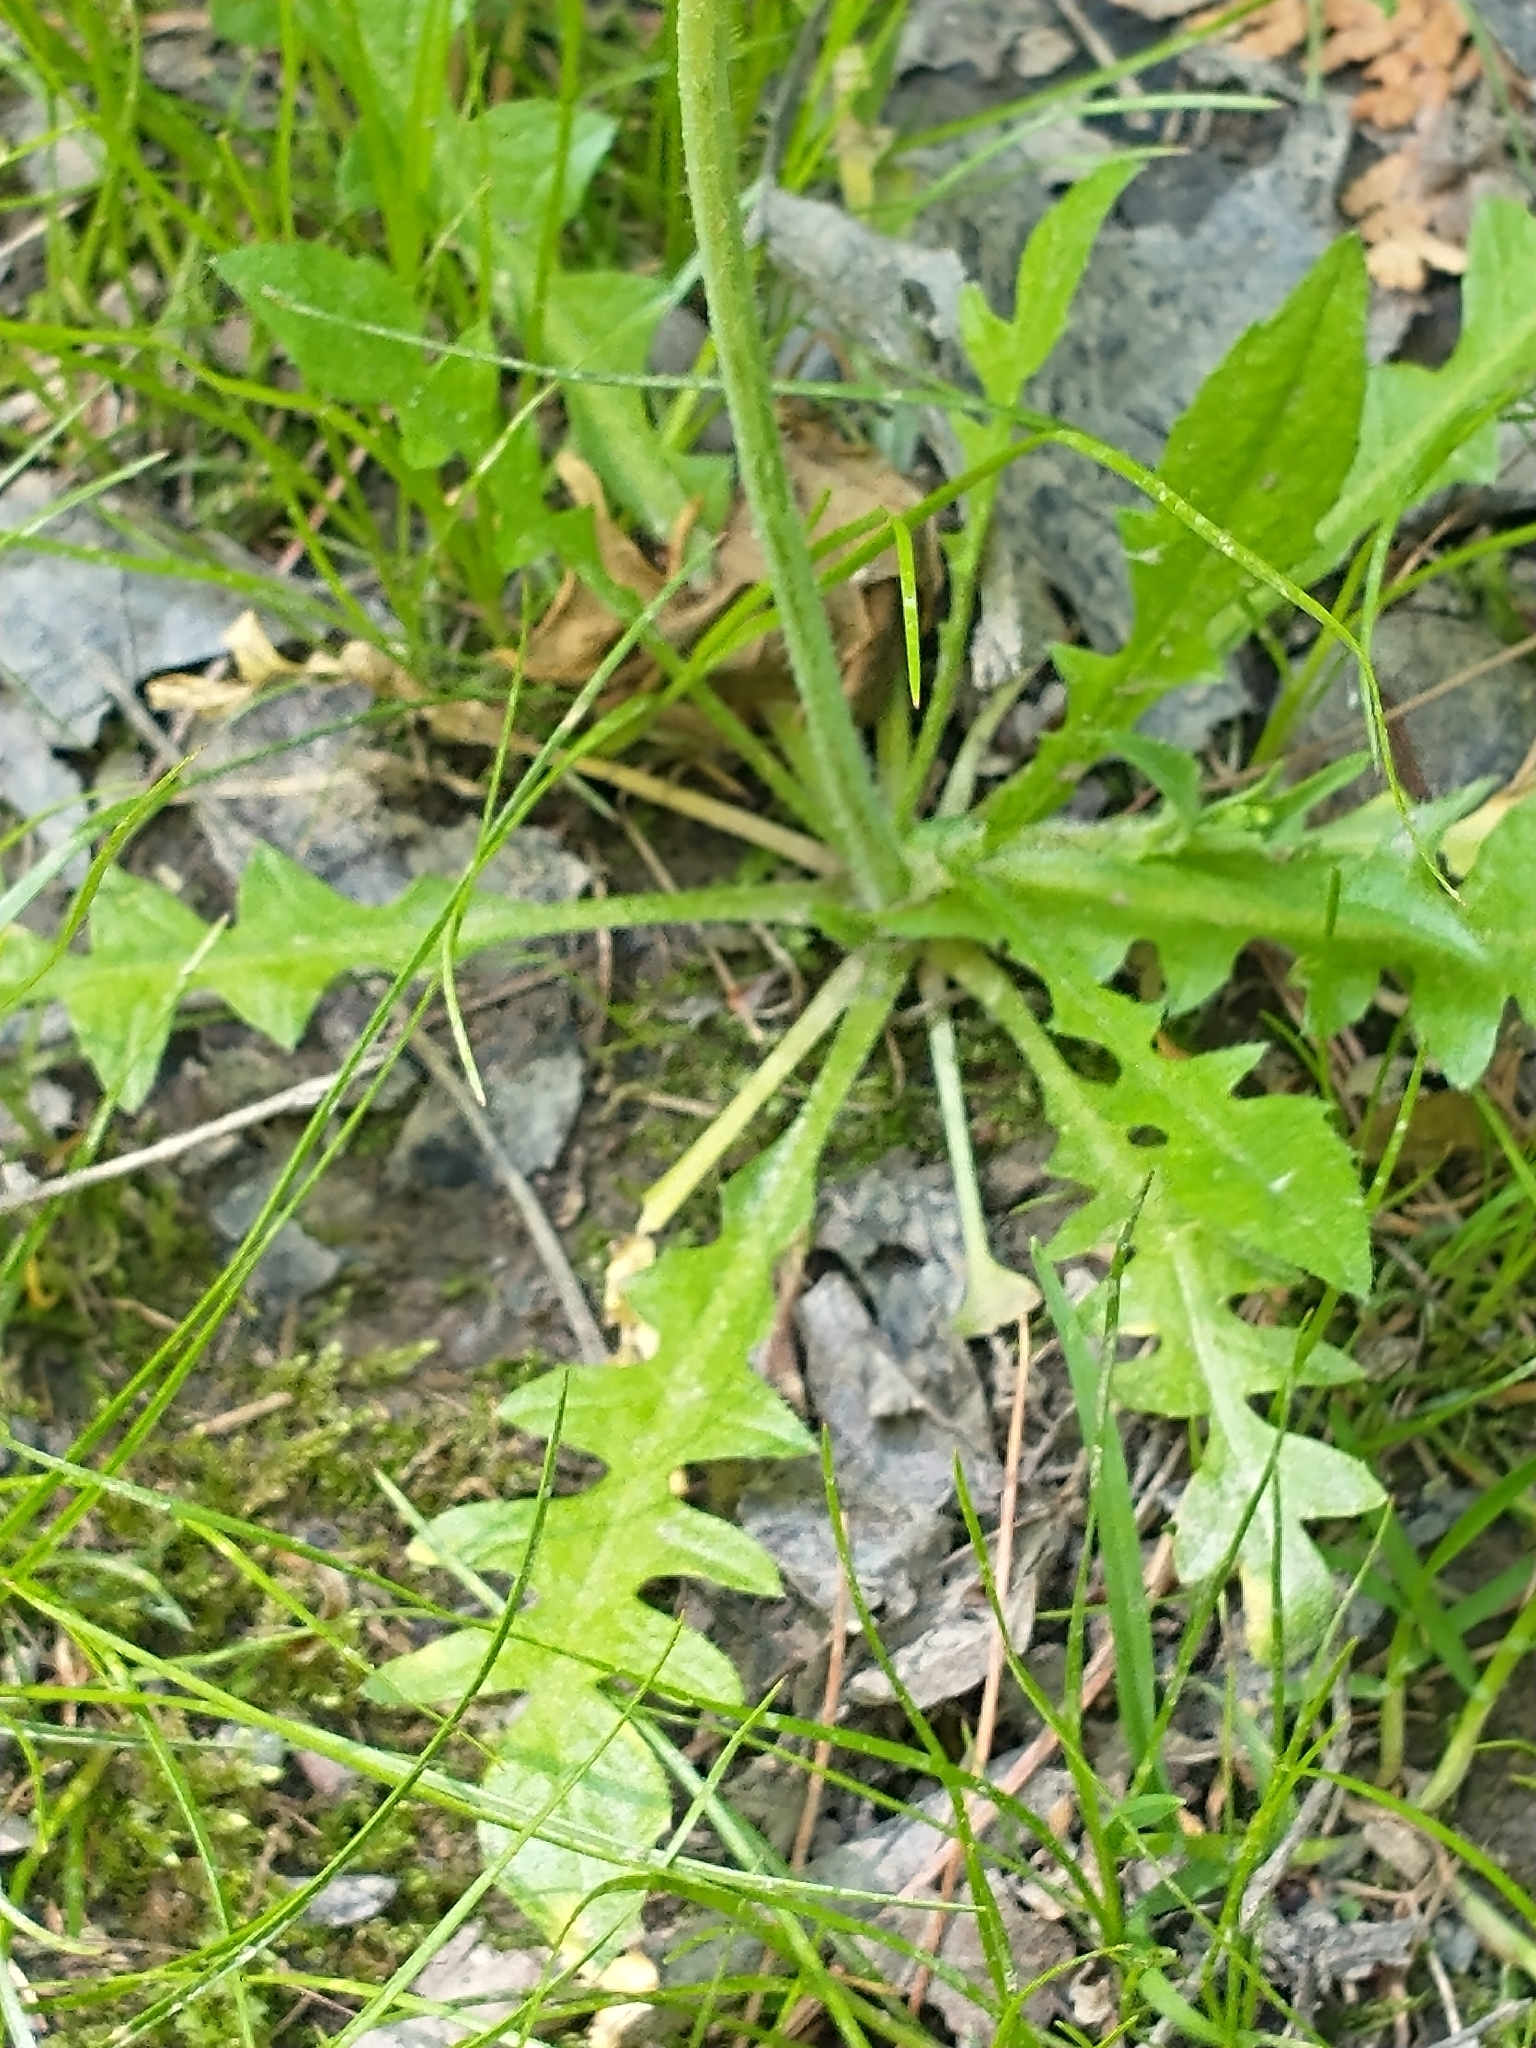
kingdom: Plantae
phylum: Tracheophyta
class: Magnoliopsida
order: Brassicales
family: Brassicaceae
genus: Capsella
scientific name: Capsella bursa-pastoris
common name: Shepherd's purse
